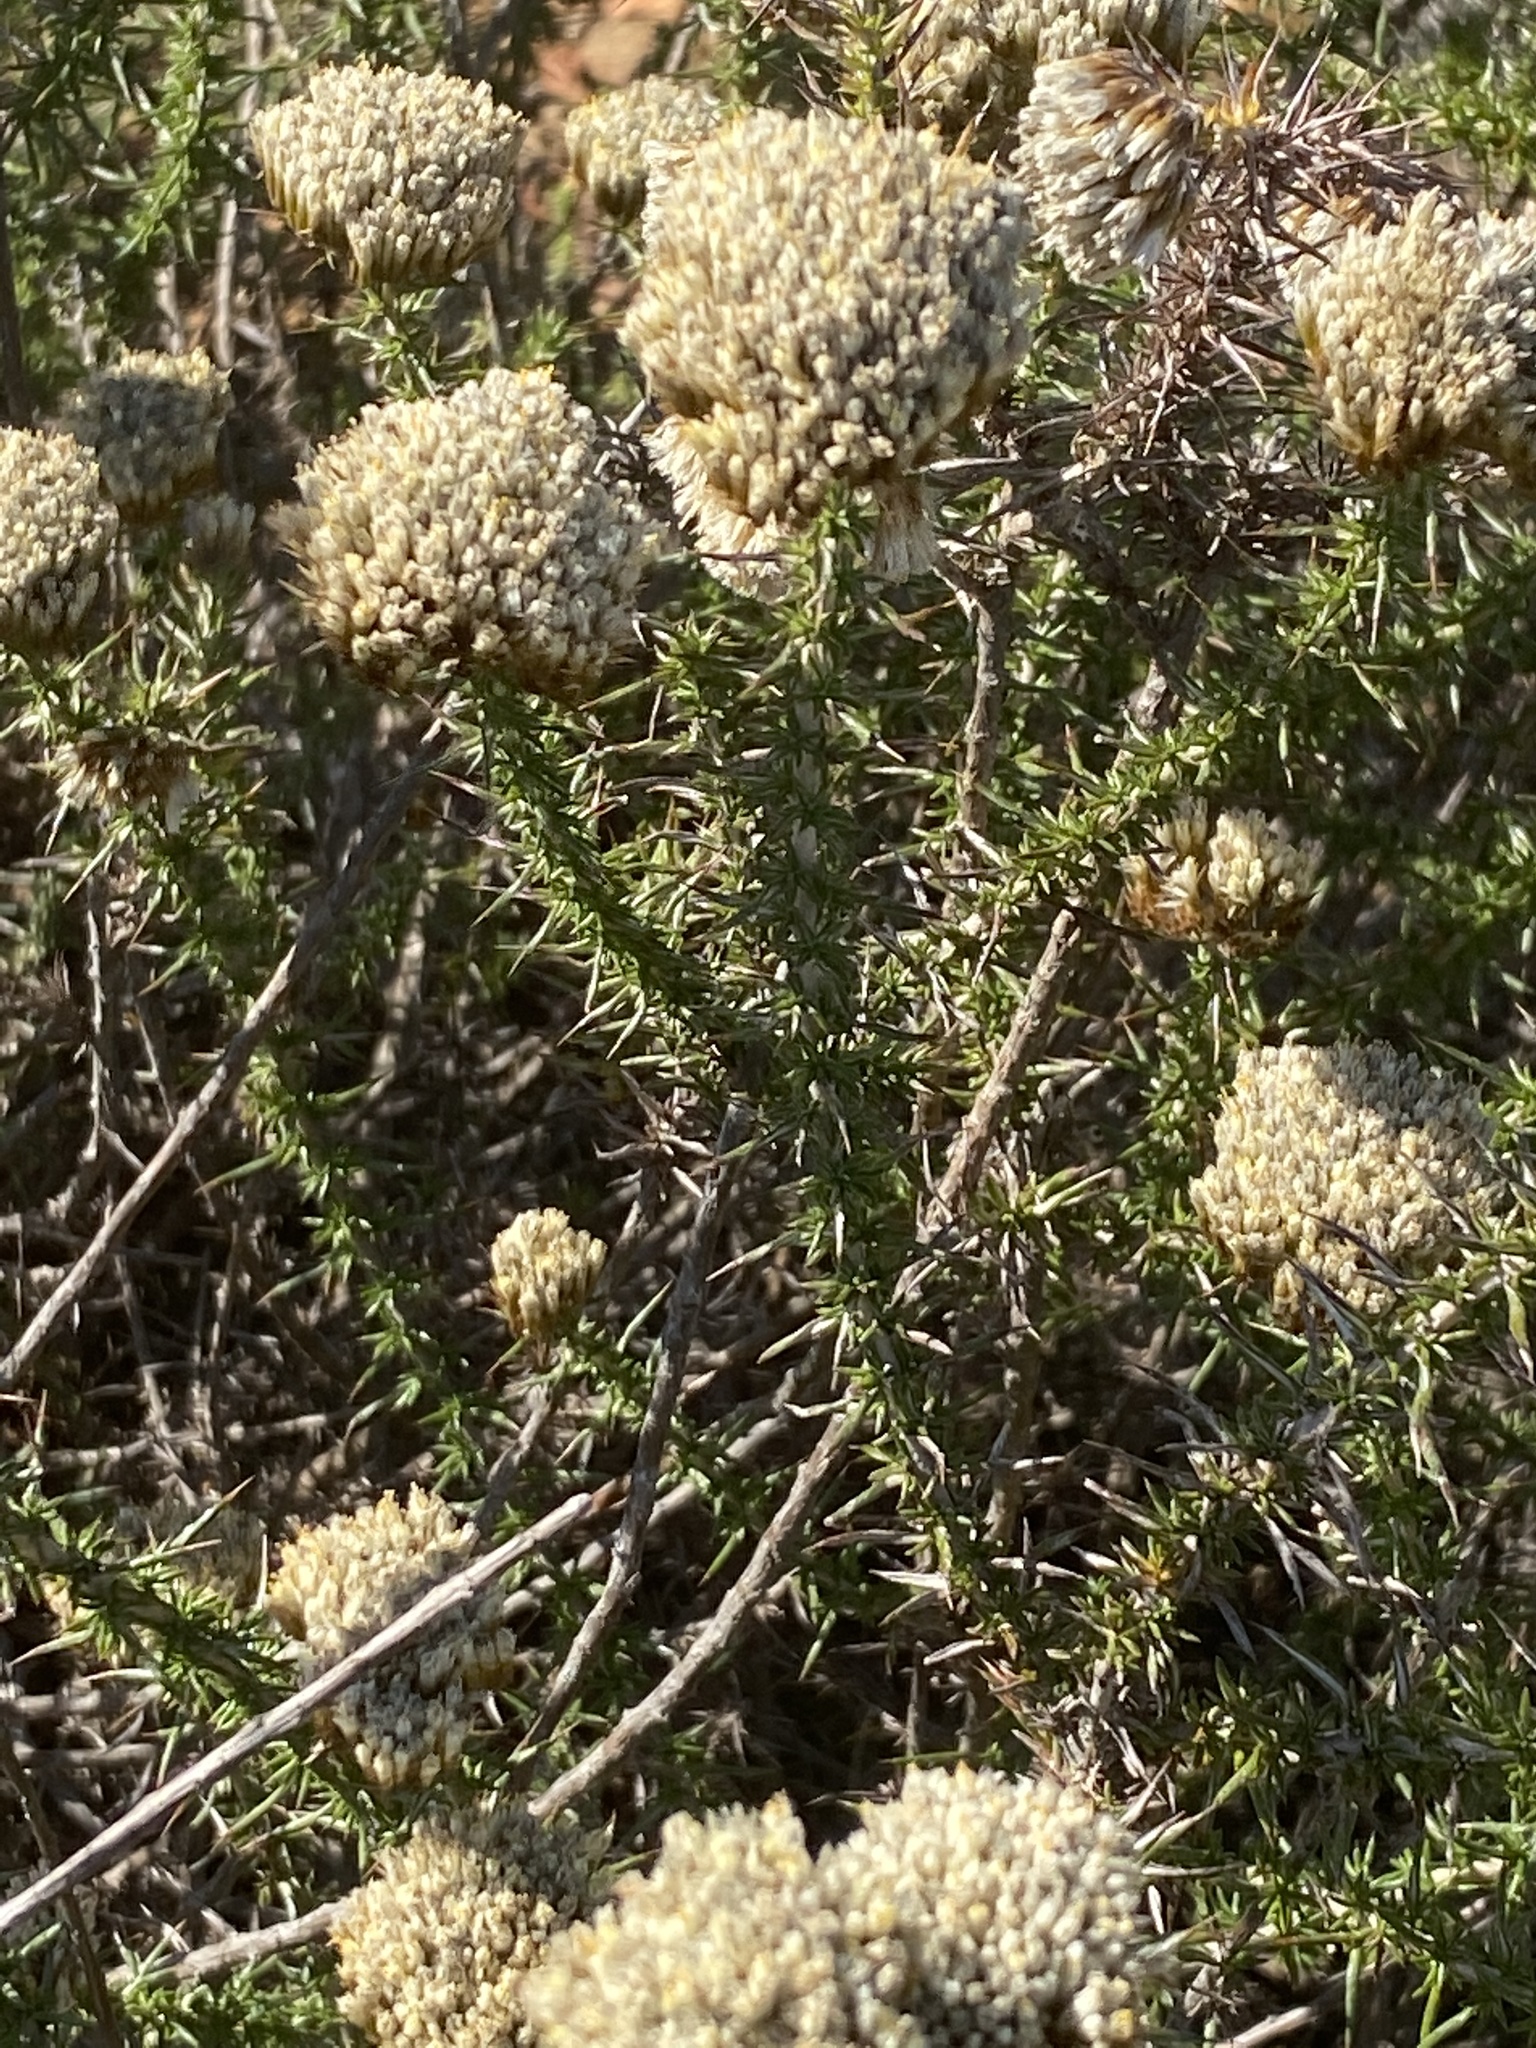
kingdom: Plantae
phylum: Tracheophyta
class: Magnoliopsida
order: Asterales
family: Asteraceae
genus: Metalasia
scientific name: Metalasia acuta
